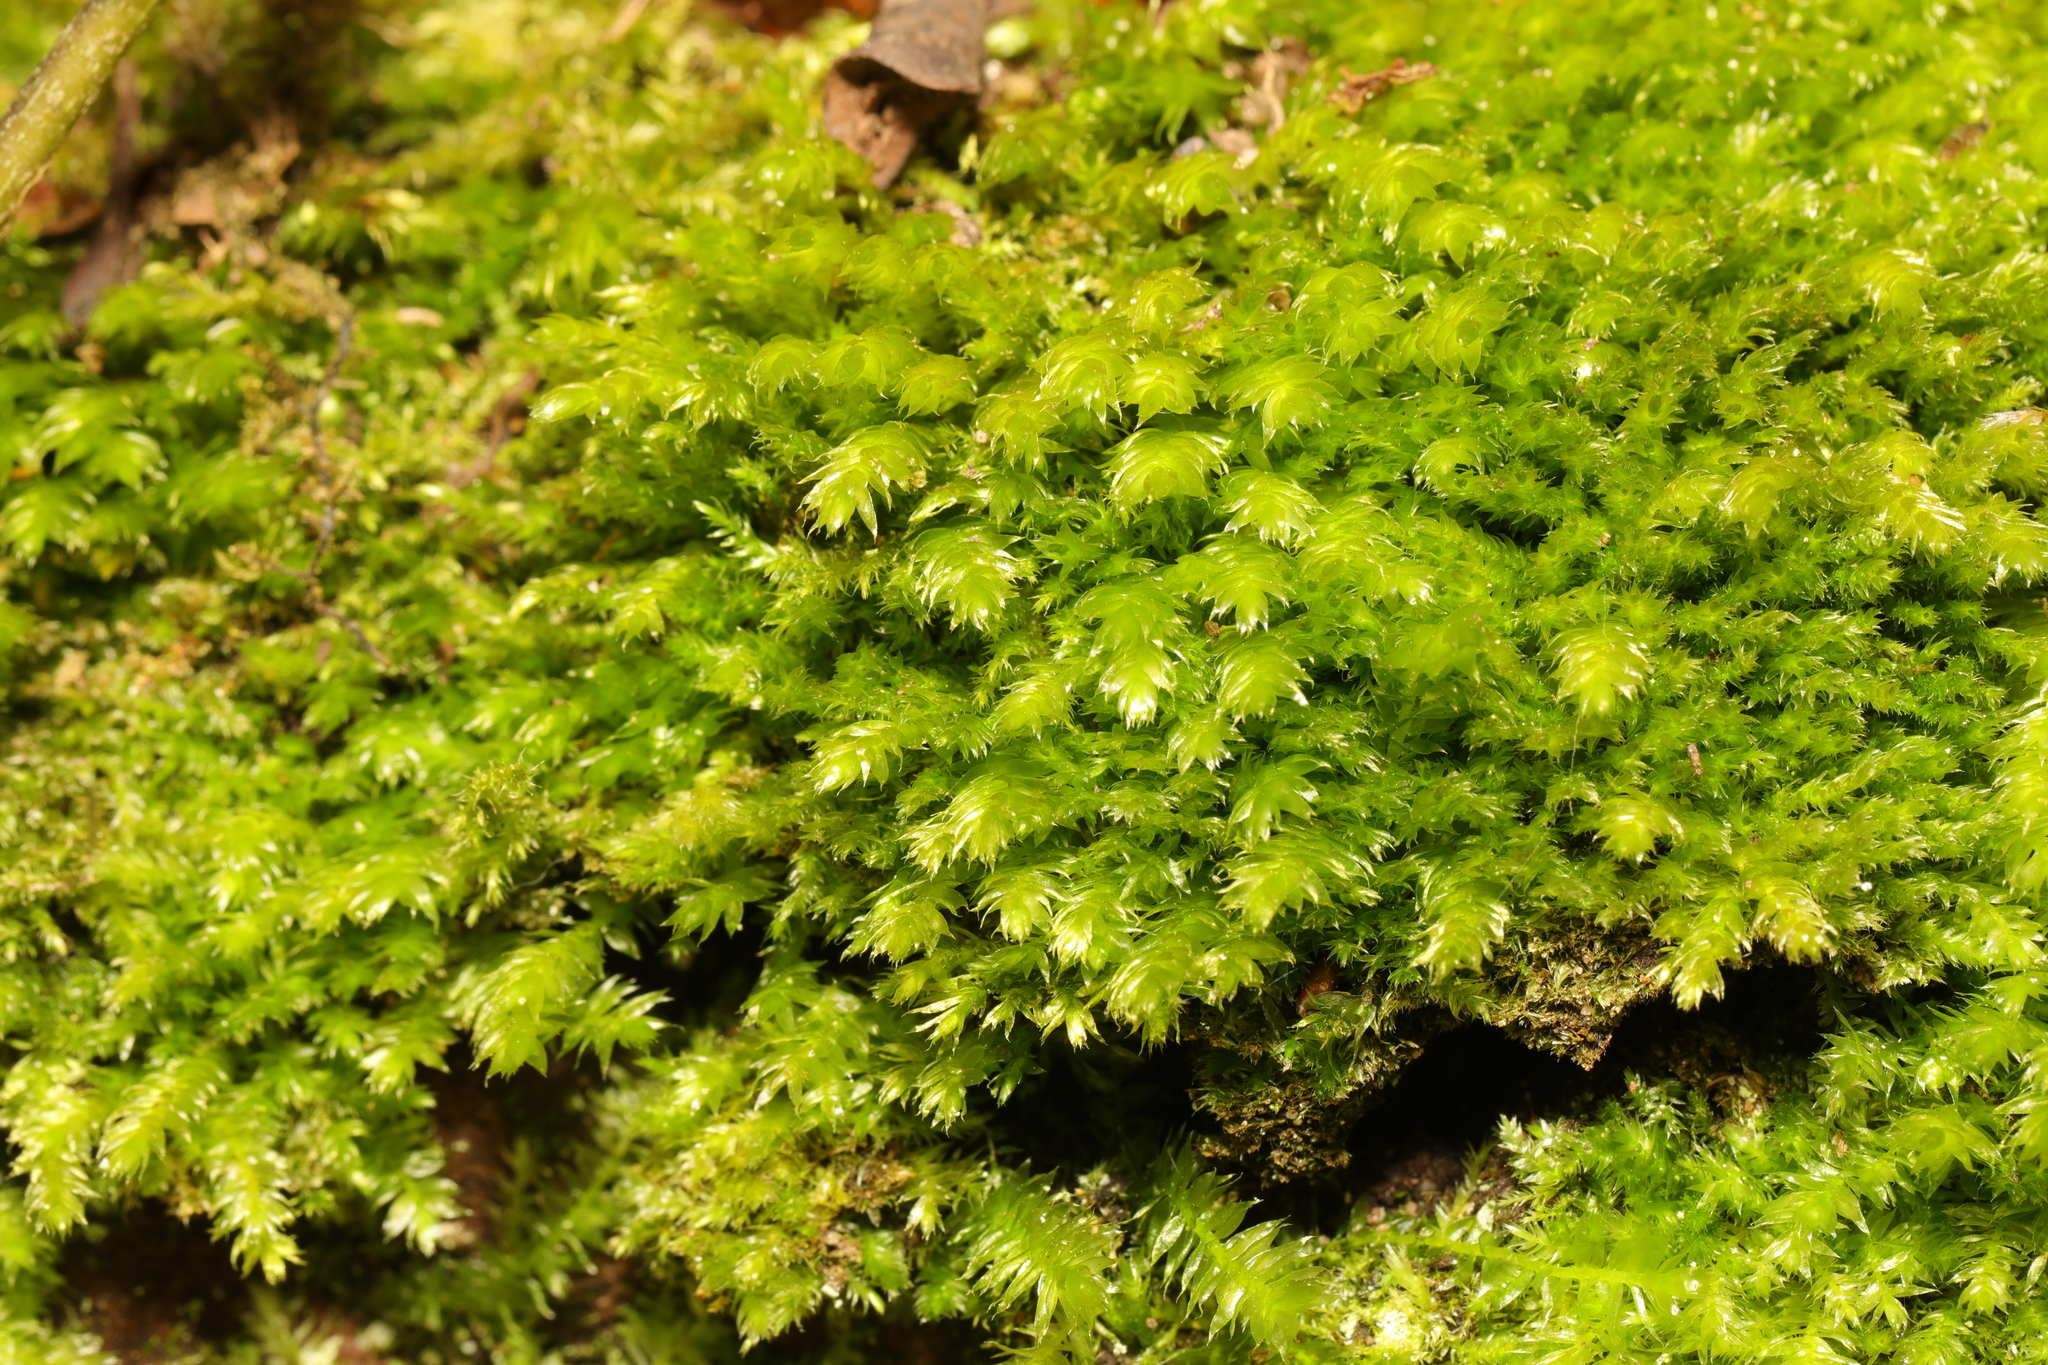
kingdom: Plantae
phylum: Bryophyta
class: Bryopsida
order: Hypnales
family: Brachytheciaceae
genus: Rhynchostegium
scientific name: Rhynchostegium confertum
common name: Clustered feather-moss
